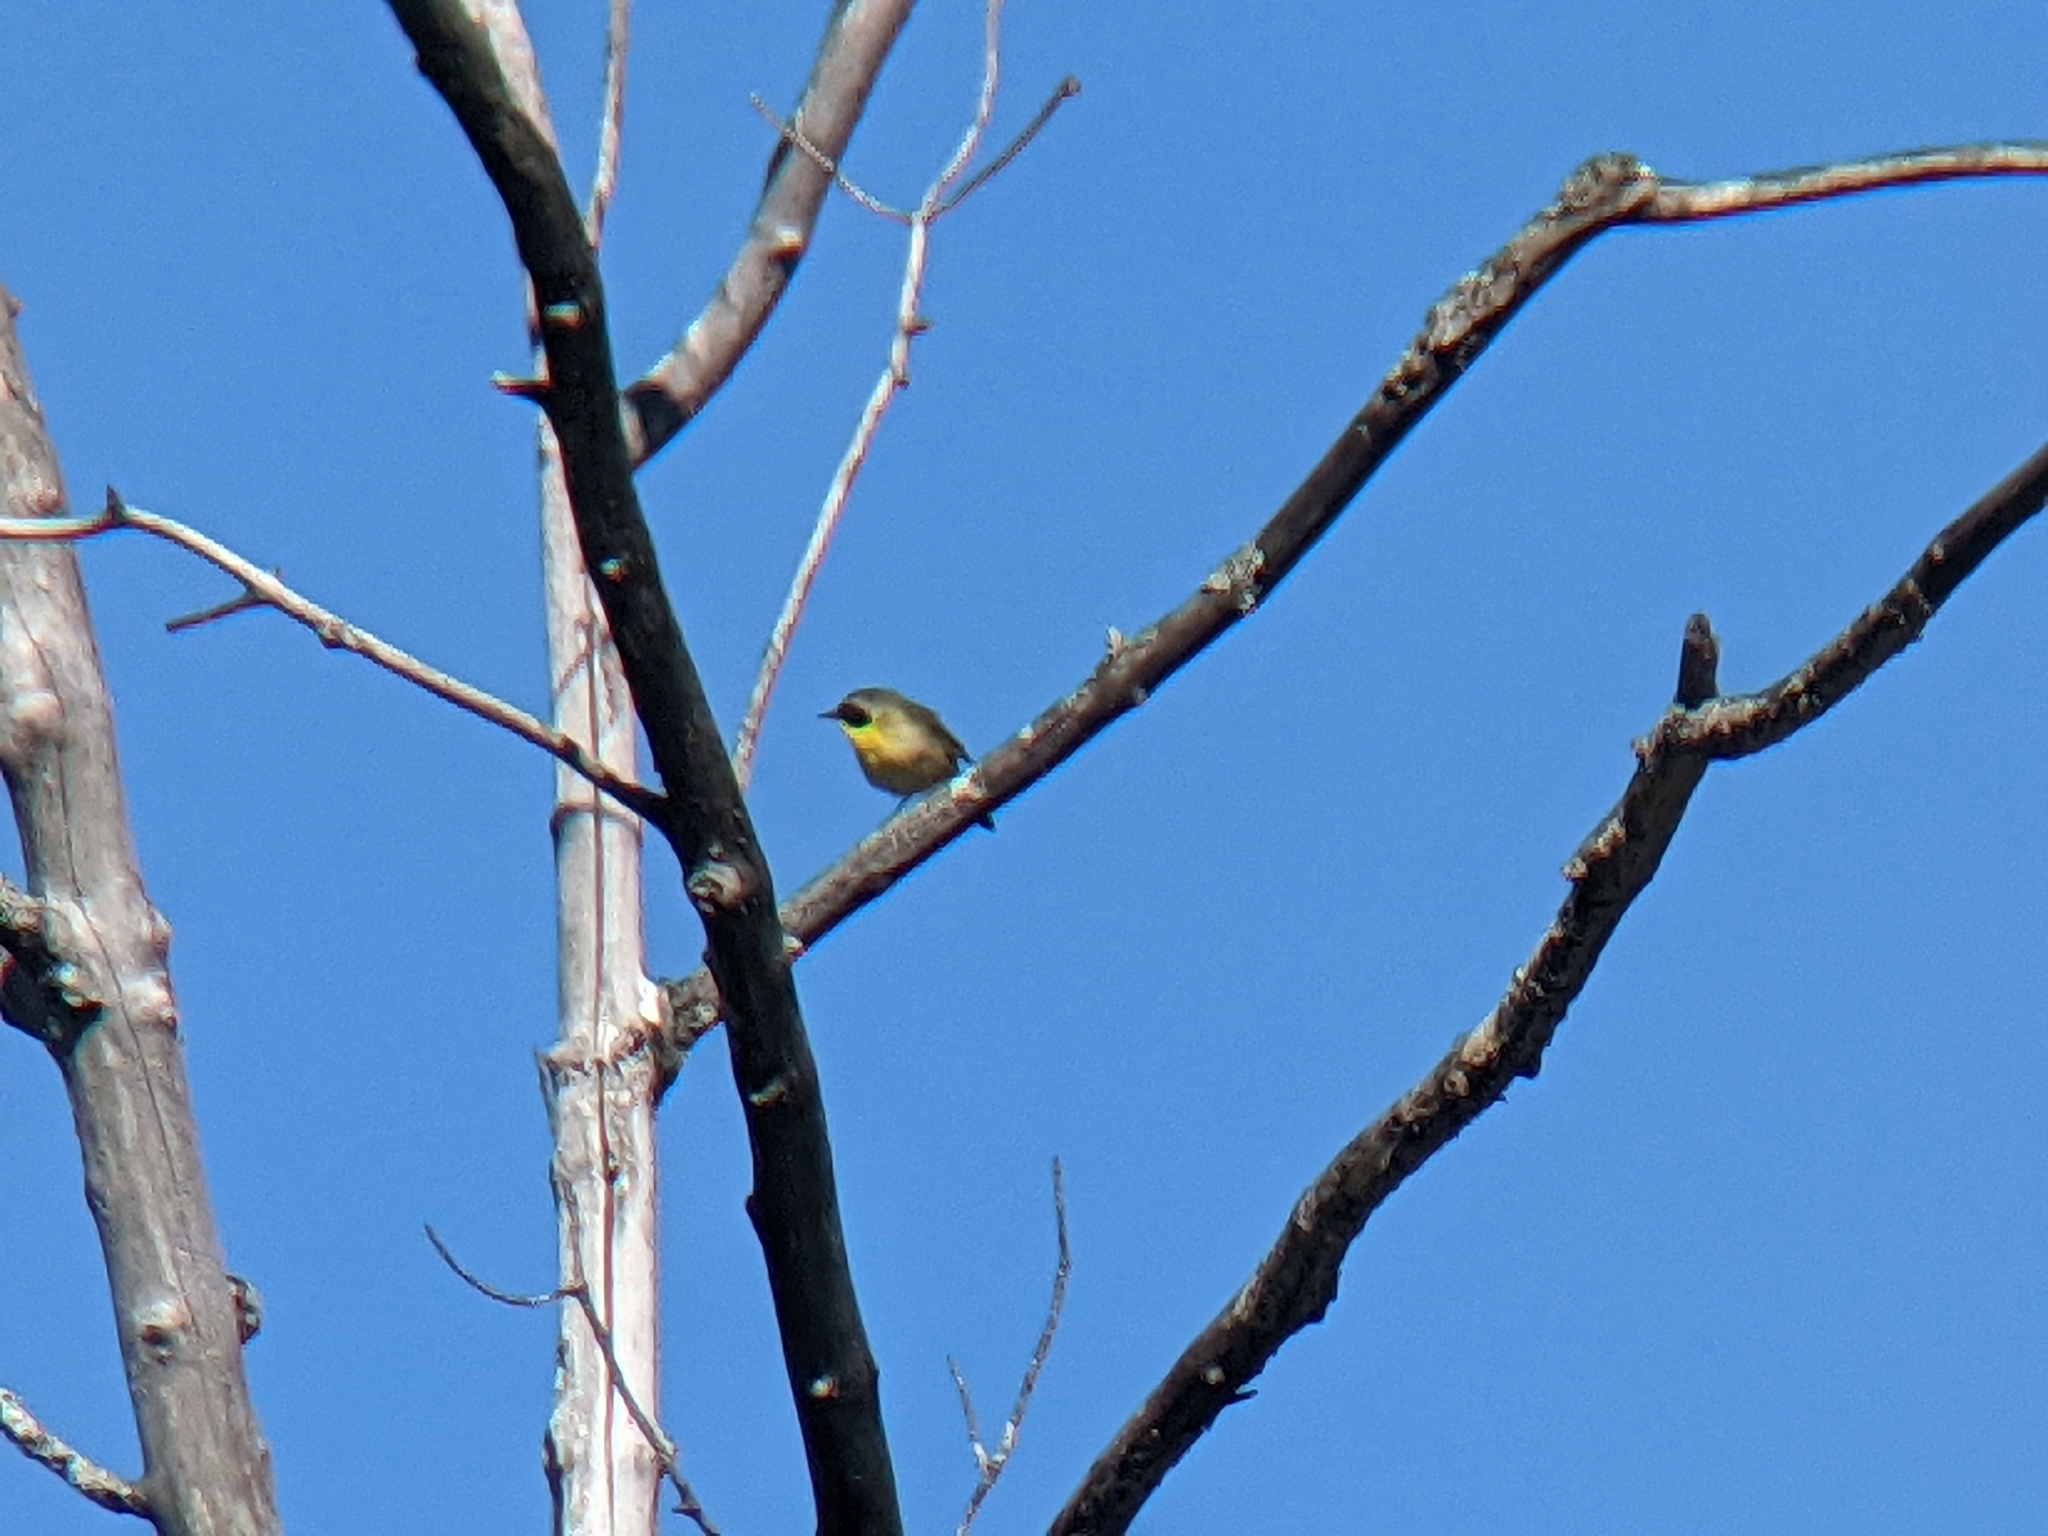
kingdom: Animalia
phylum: Chordata
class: Aves
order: Passeriformes
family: Parulidae
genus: Geothlypis
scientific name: Geothlypis trichas
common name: Common yellowthroat
